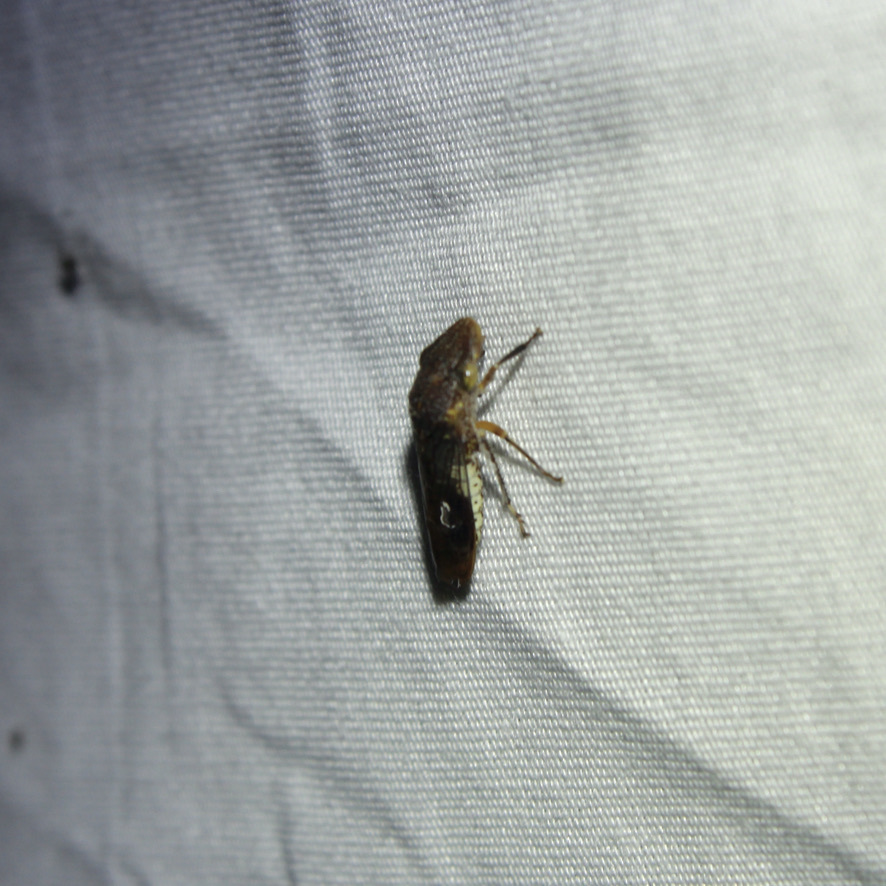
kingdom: Animalia
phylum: Arthropoda
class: Insecta
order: Hemiptera
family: Cicadellidae
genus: Homalodisca
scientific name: Homalodisca vitripennis
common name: Glassy-winged sharpshooter
